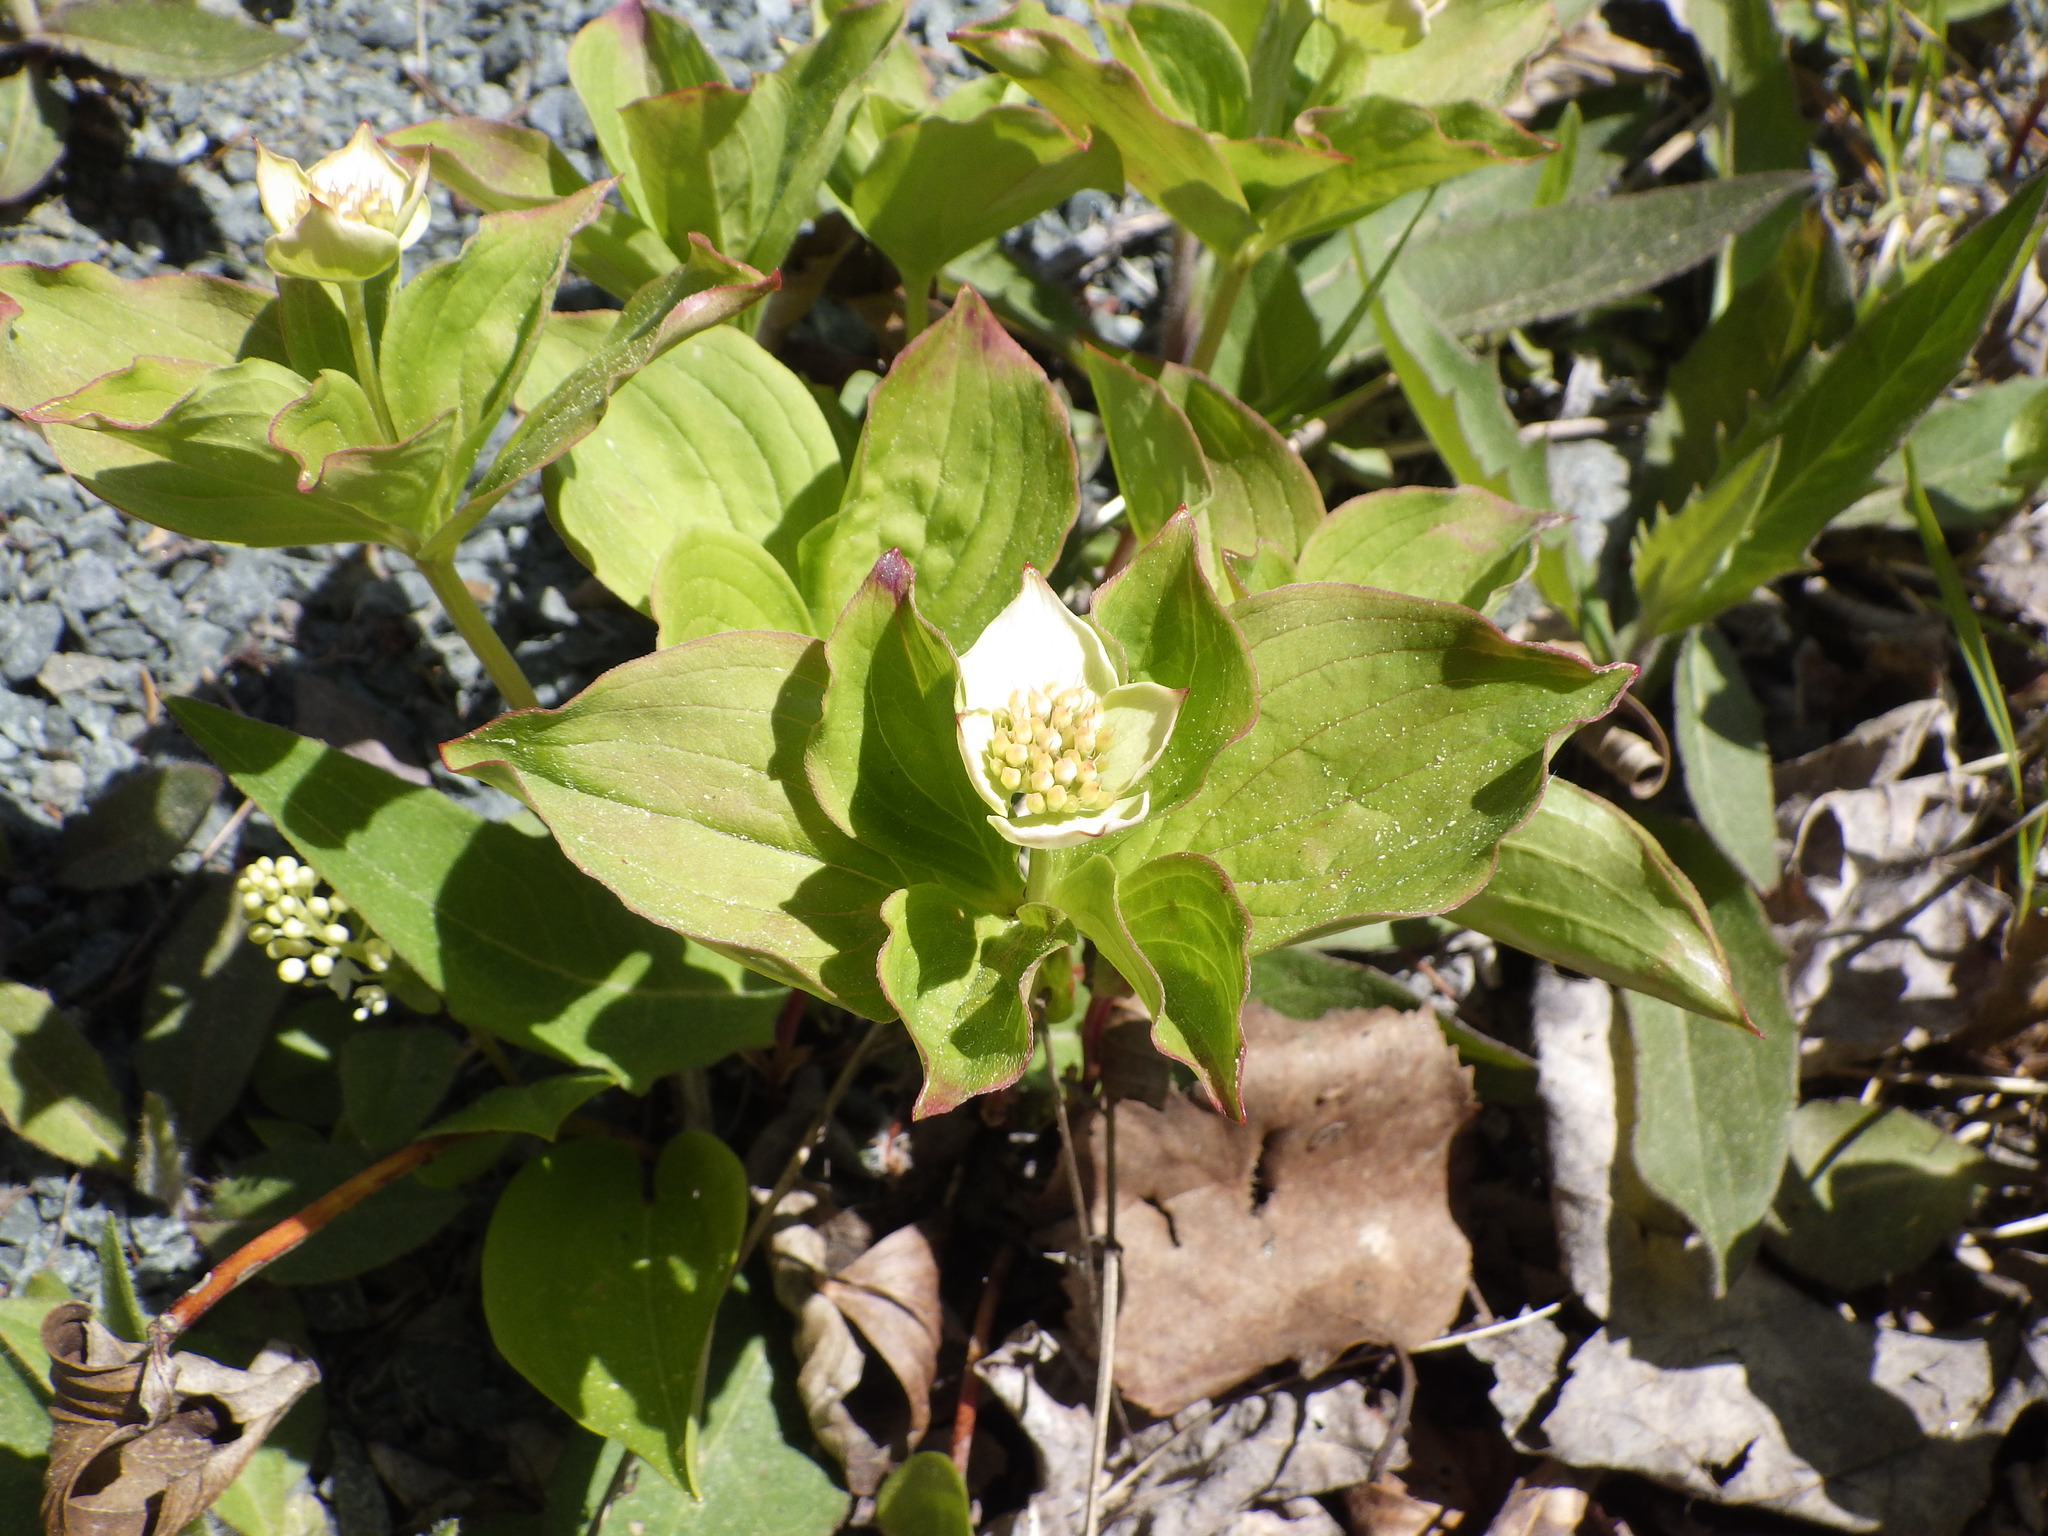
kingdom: Plantae
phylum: Tracheophyta
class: Magnoliopsida
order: Cornales
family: Cornaceae
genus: Cornus
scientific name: Cornus canadensis
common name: Creeping dogwood
